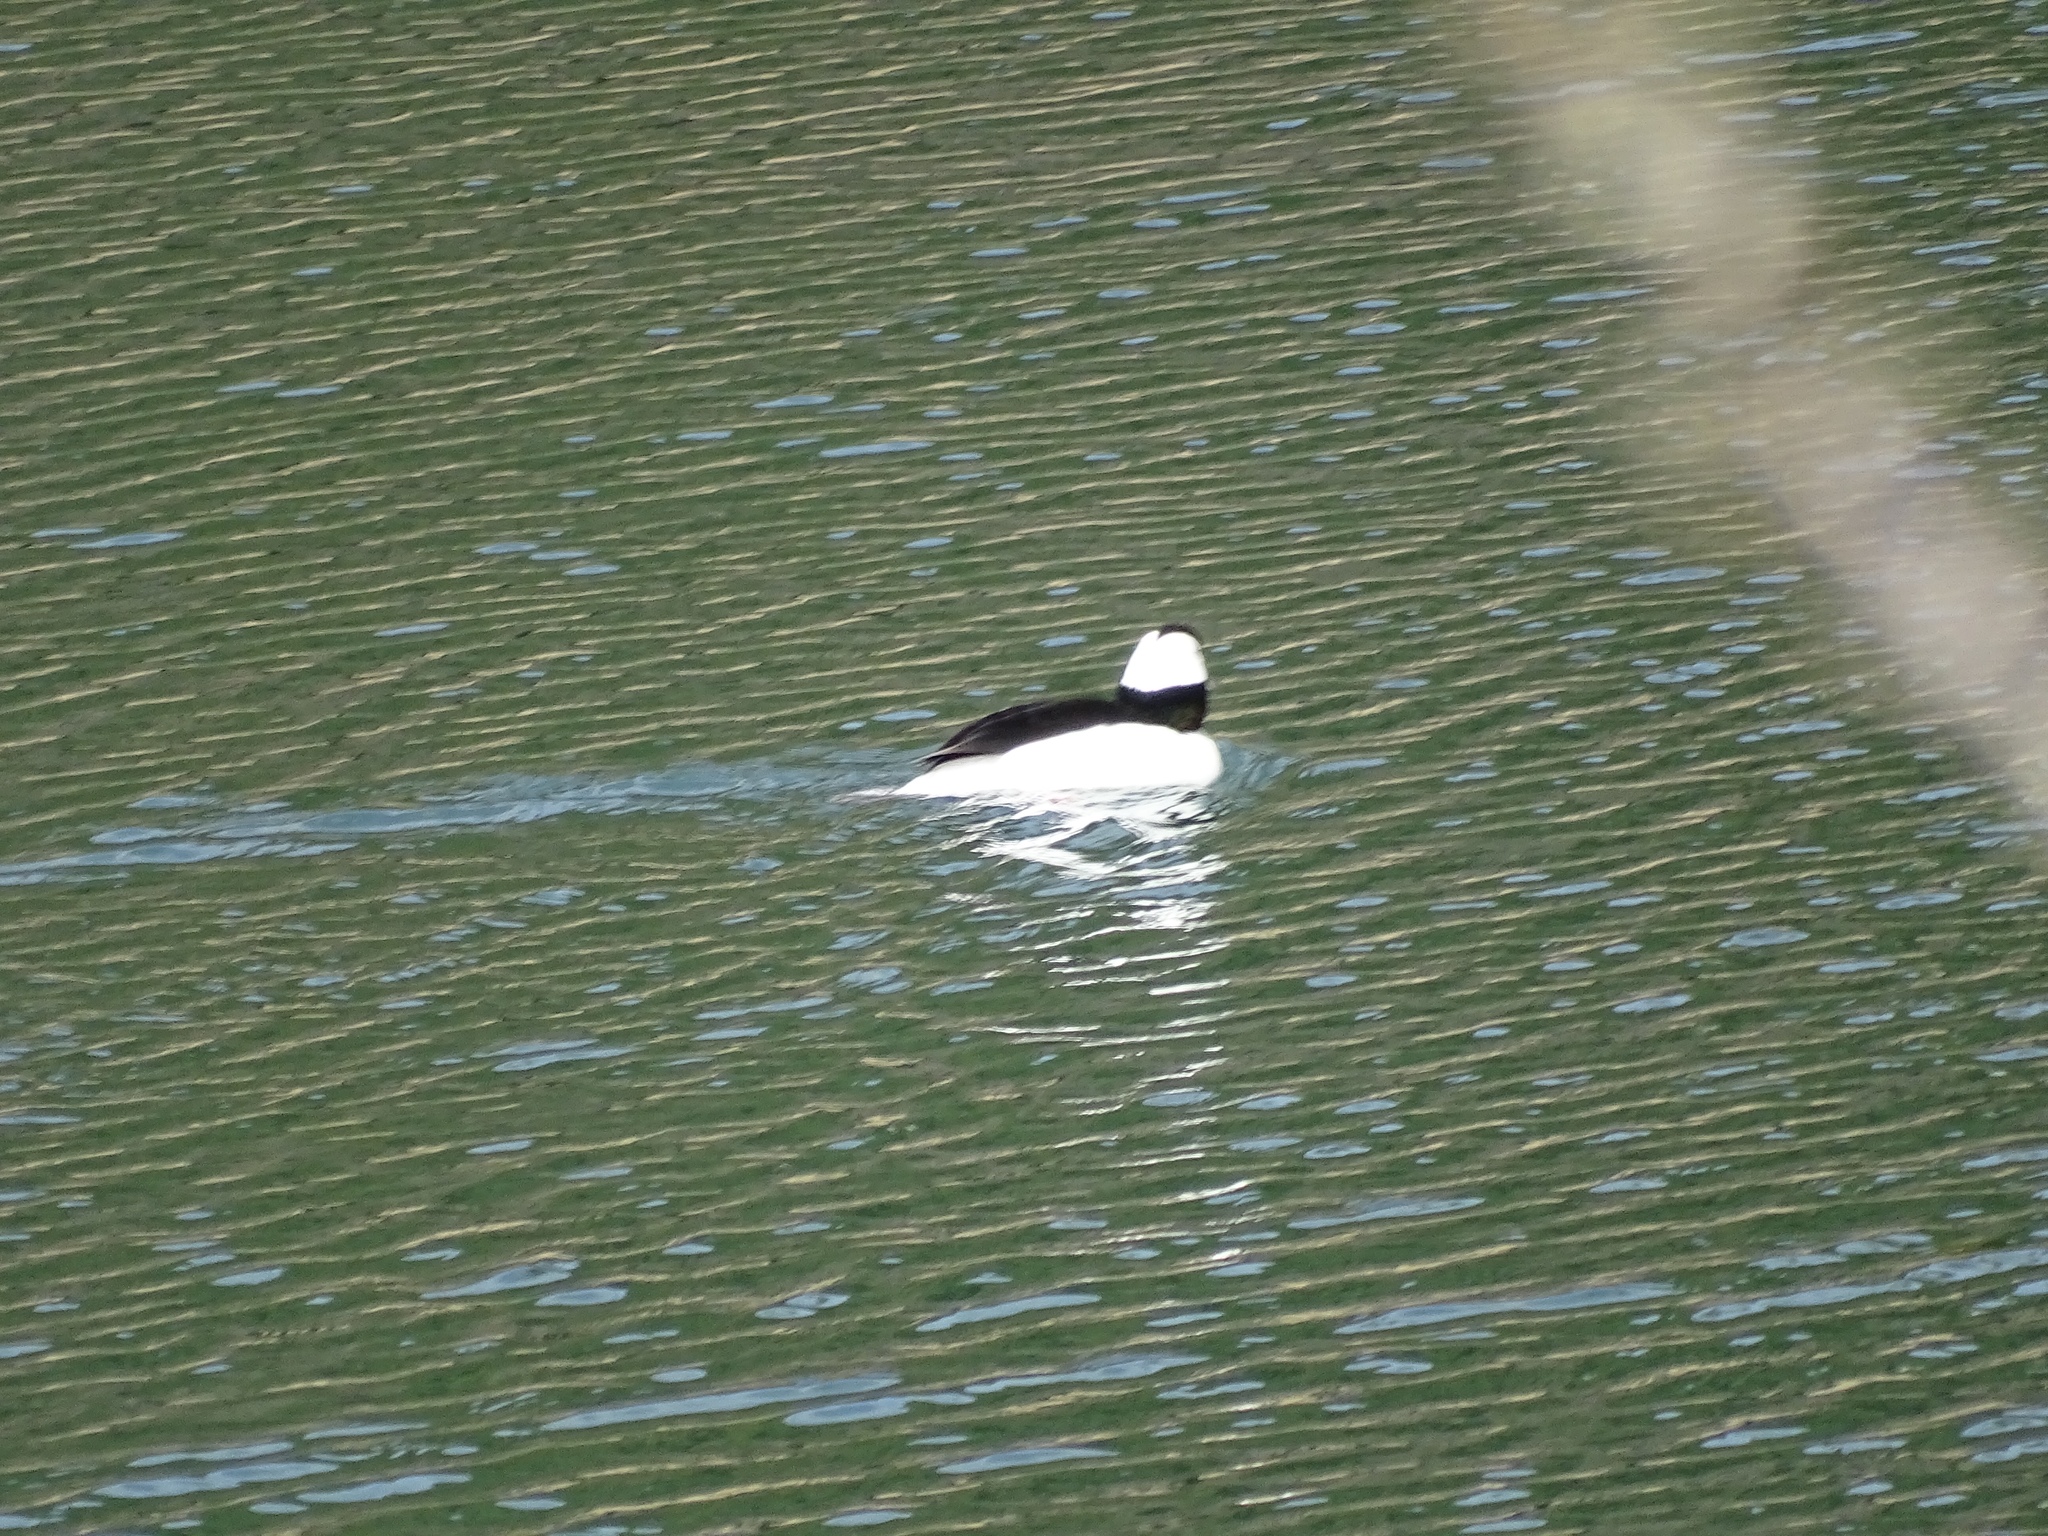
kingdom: Animalia
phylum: Chordata
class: Aves
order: Anseriformes
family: Anatidae
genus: Bucephala
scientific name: Bucephala albeola
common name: Bufflehead
